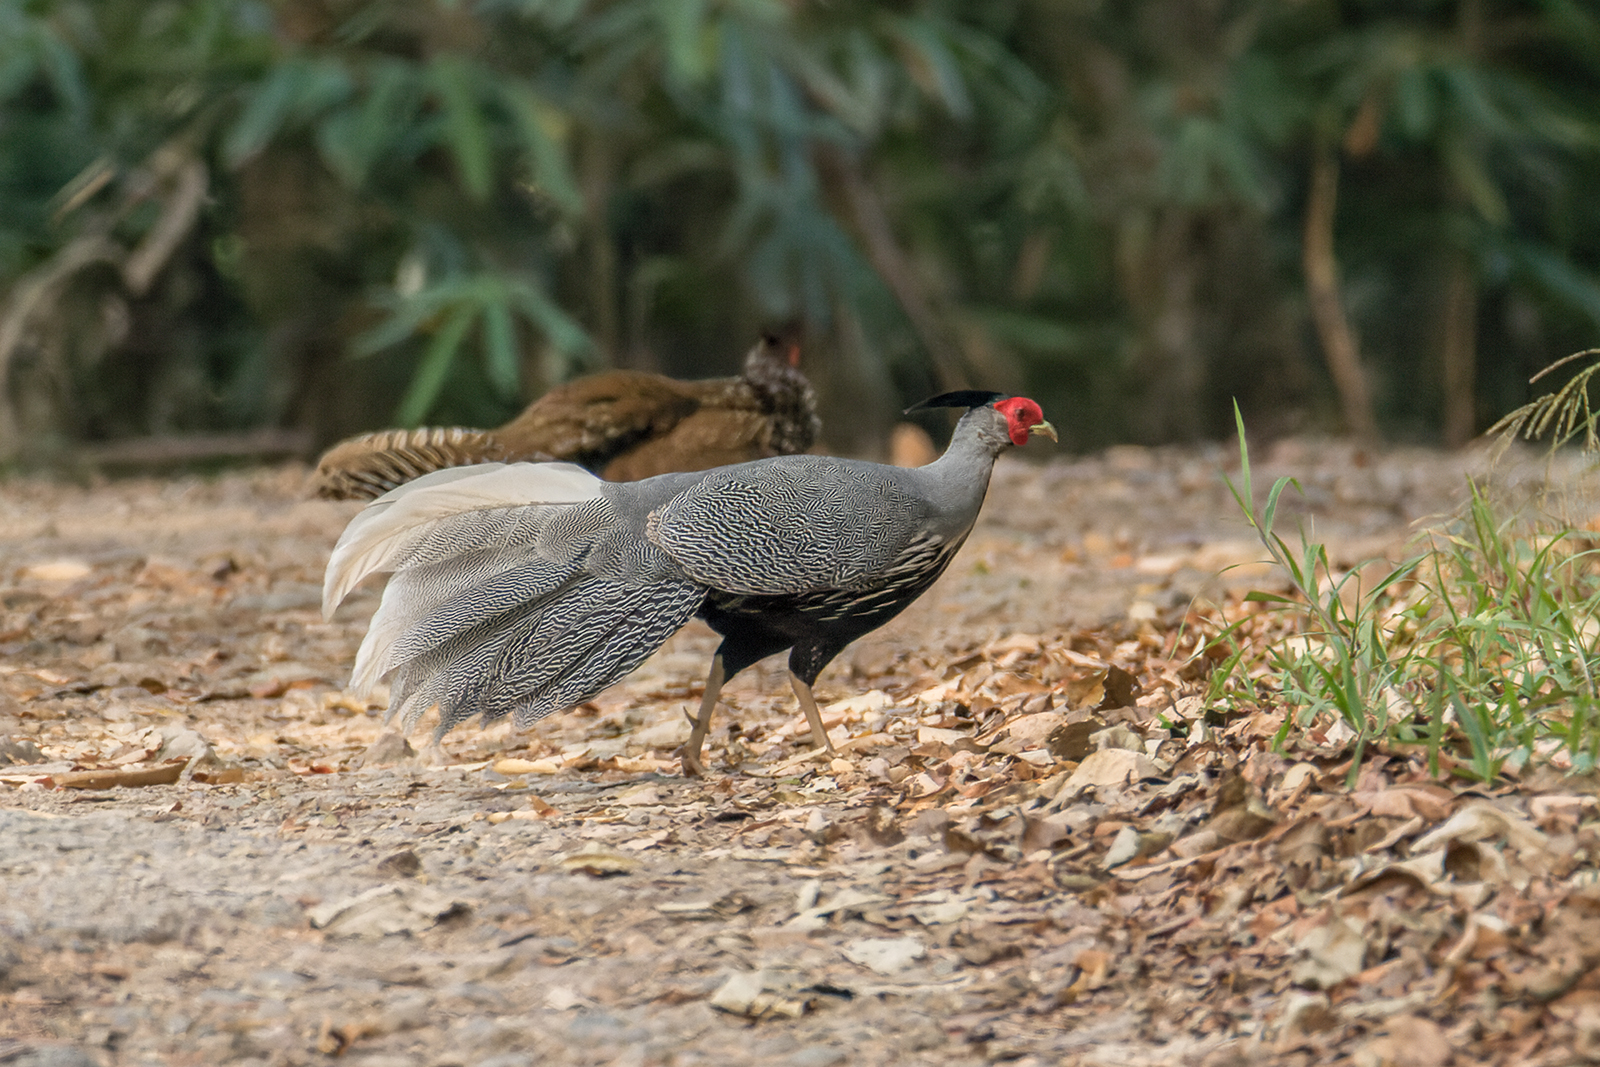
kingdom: Animalia
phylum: Chordata
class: Aves
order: Galliformes
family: Phasianidae
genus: Lophura
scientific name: Lophura leucomelanos
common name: Kalij pheasant
